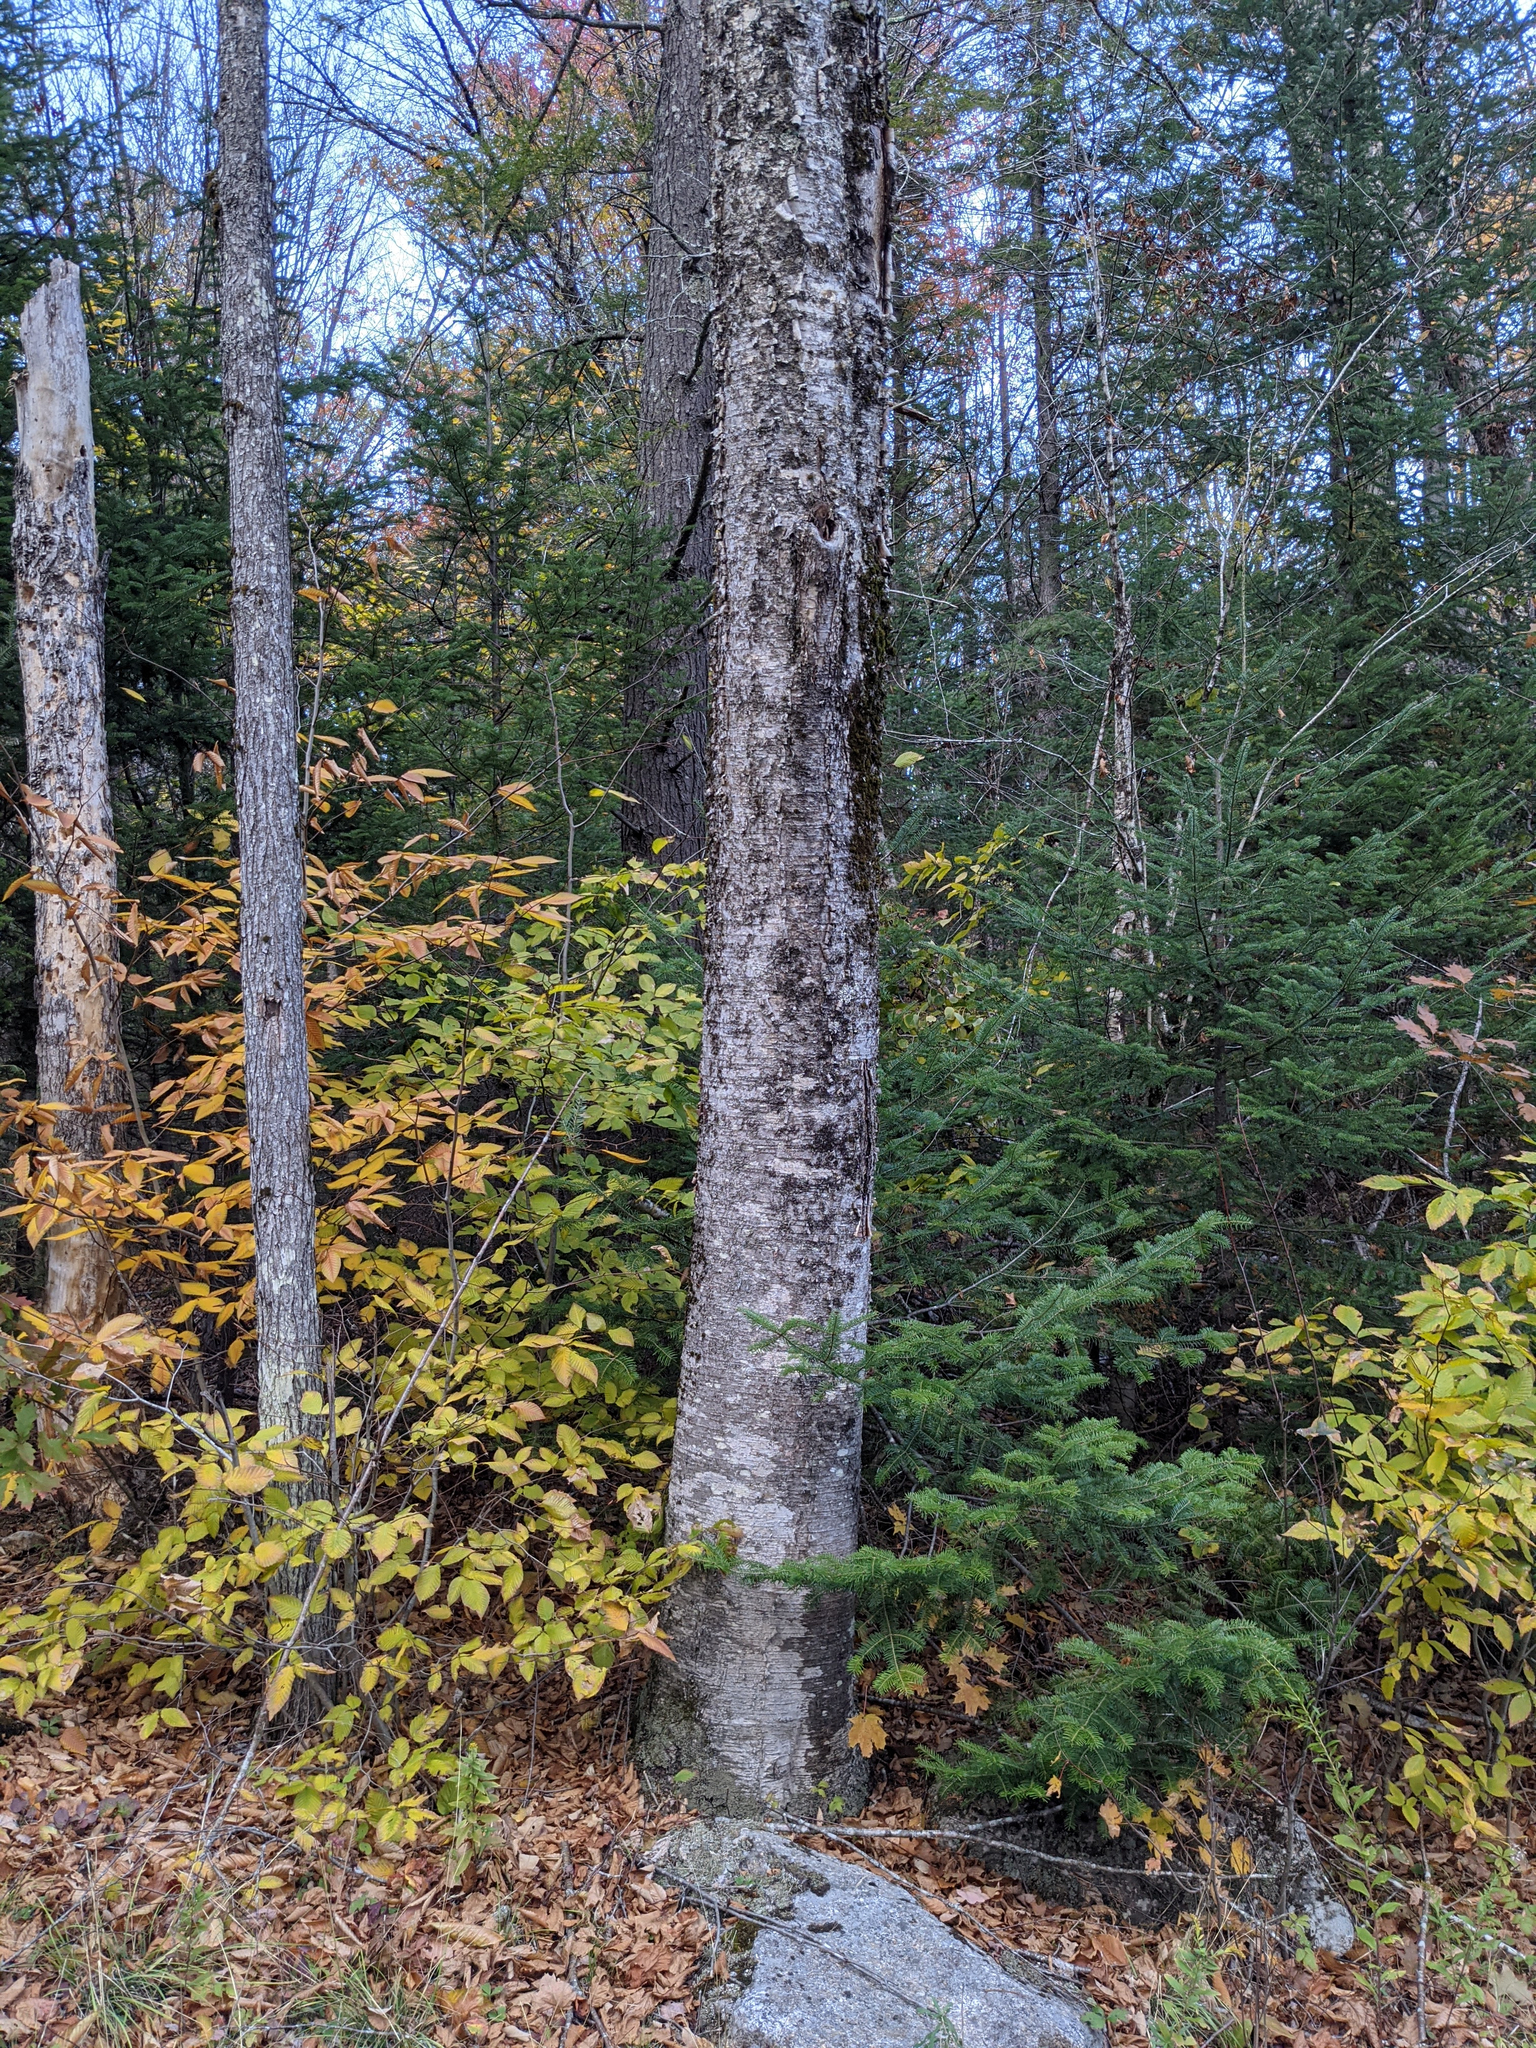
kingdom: Plantae
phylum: Tracheophyta
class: Magnoliopsida
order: Fagales
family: Betulaceae
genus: Betula
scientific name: Betula alleghaniensis
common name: Yellow birch
